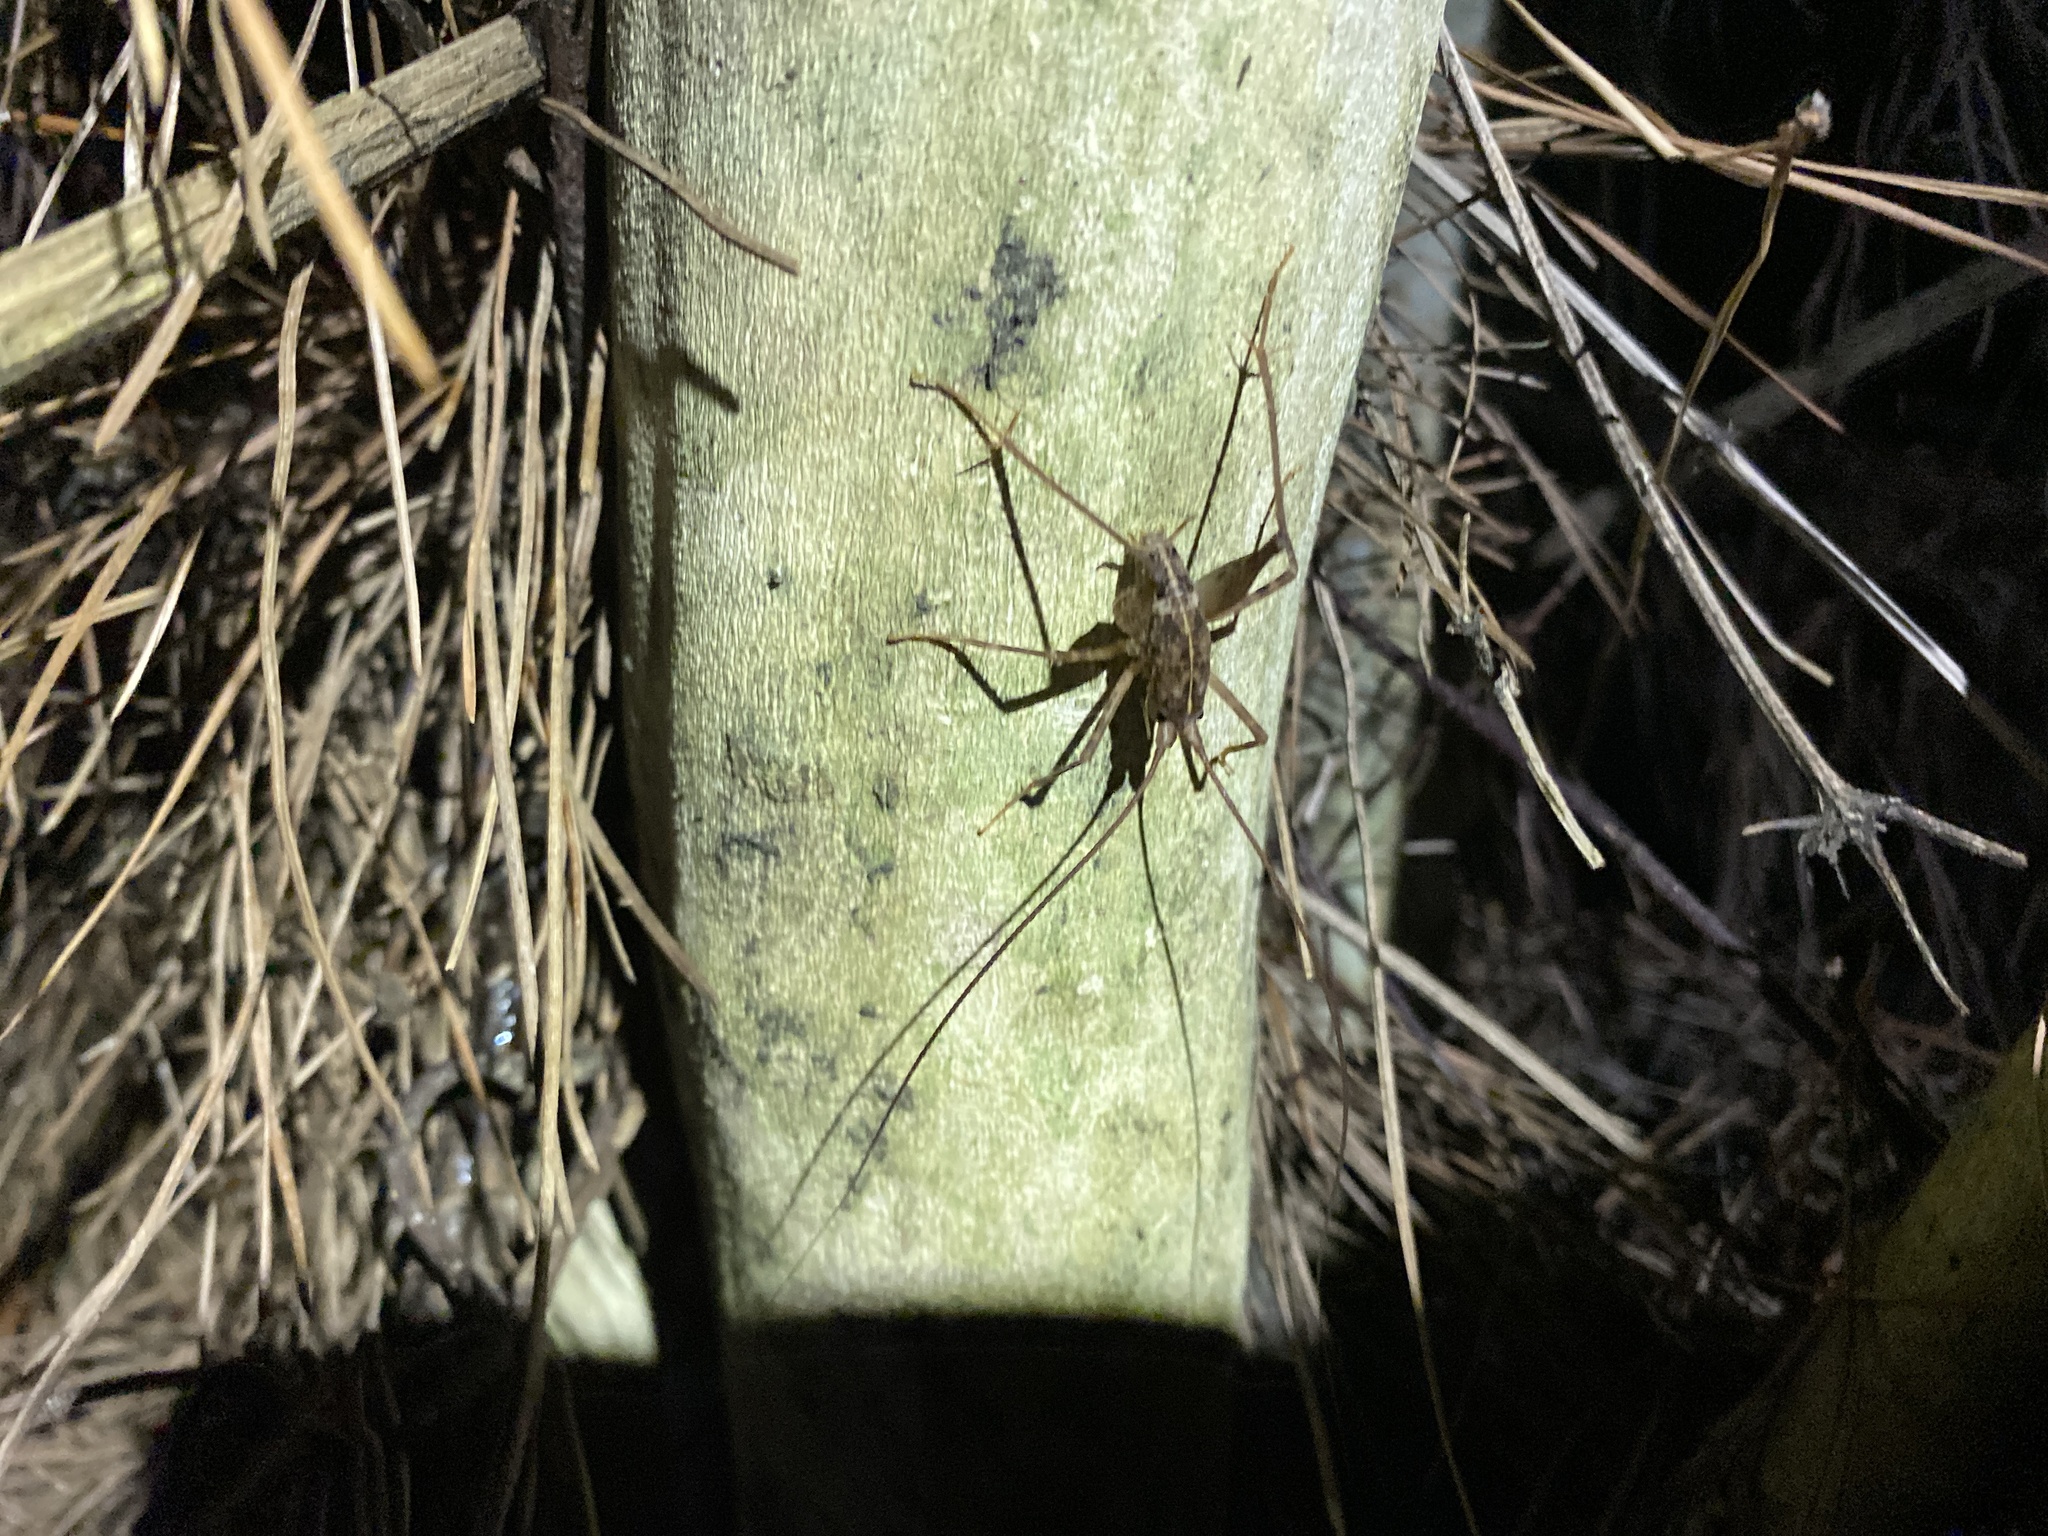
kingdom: Animalia
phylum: Arthropoda
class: Insecta
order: Orthoptera
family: Rhaphidophoridae
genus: Pleioplectron
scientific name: Pleioplectron simplex
